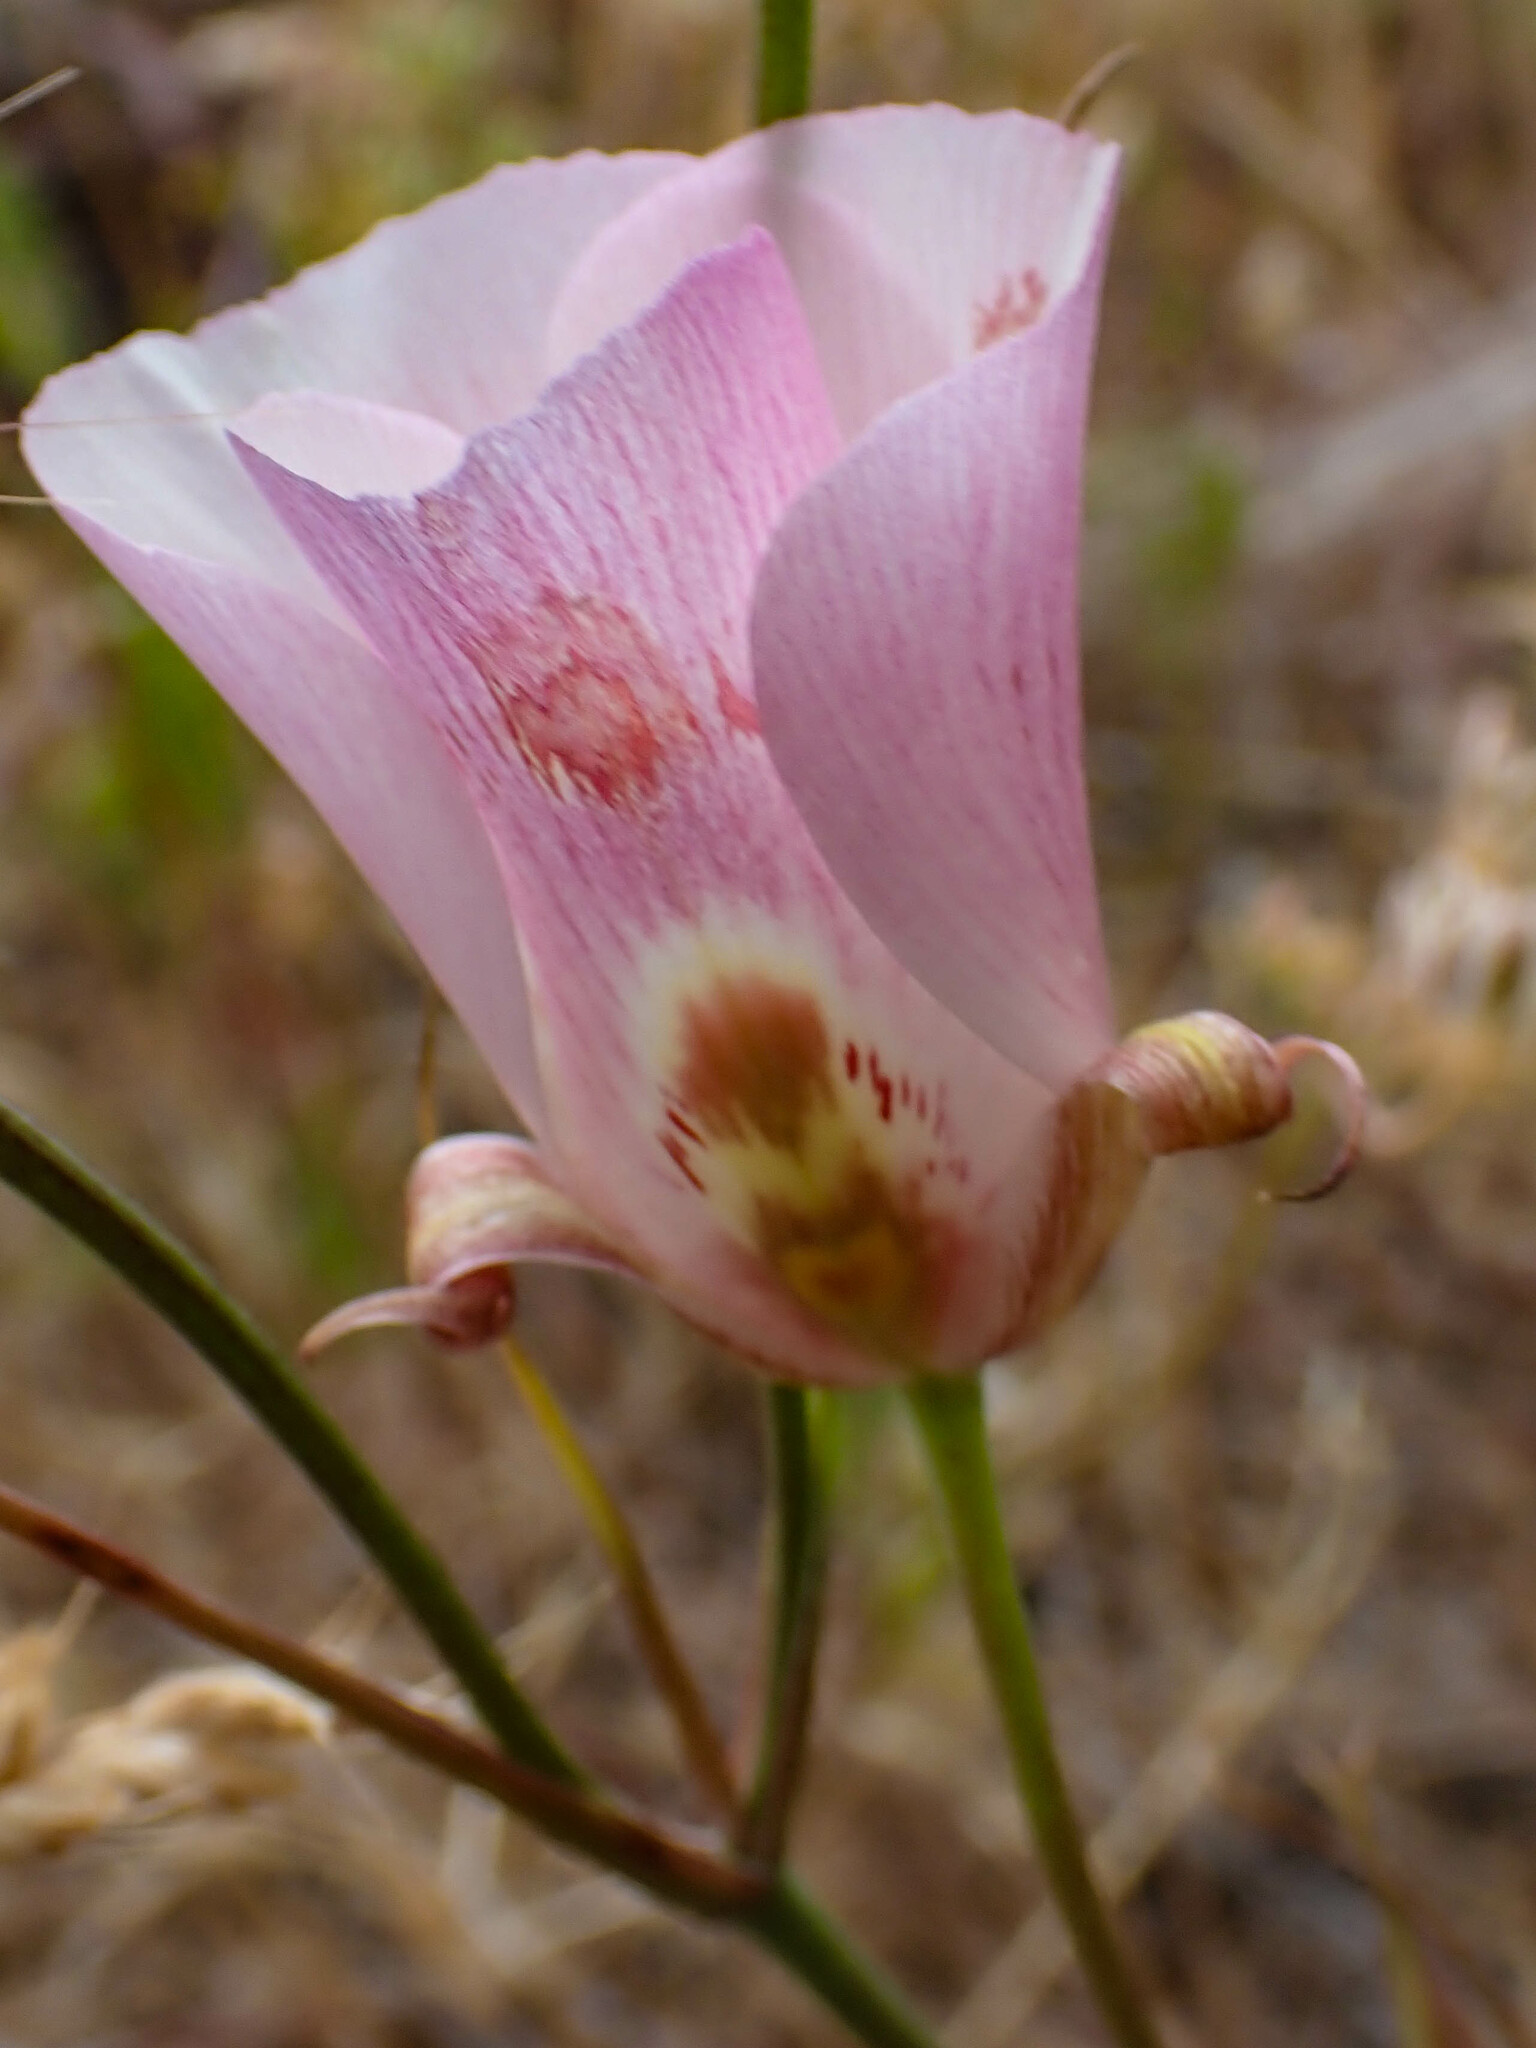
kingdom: Plantae
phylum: Tracheophyta
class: Liliopsida
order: Liliales
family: Liliaceae
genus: Calochortus
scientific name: Calochortus venustus
